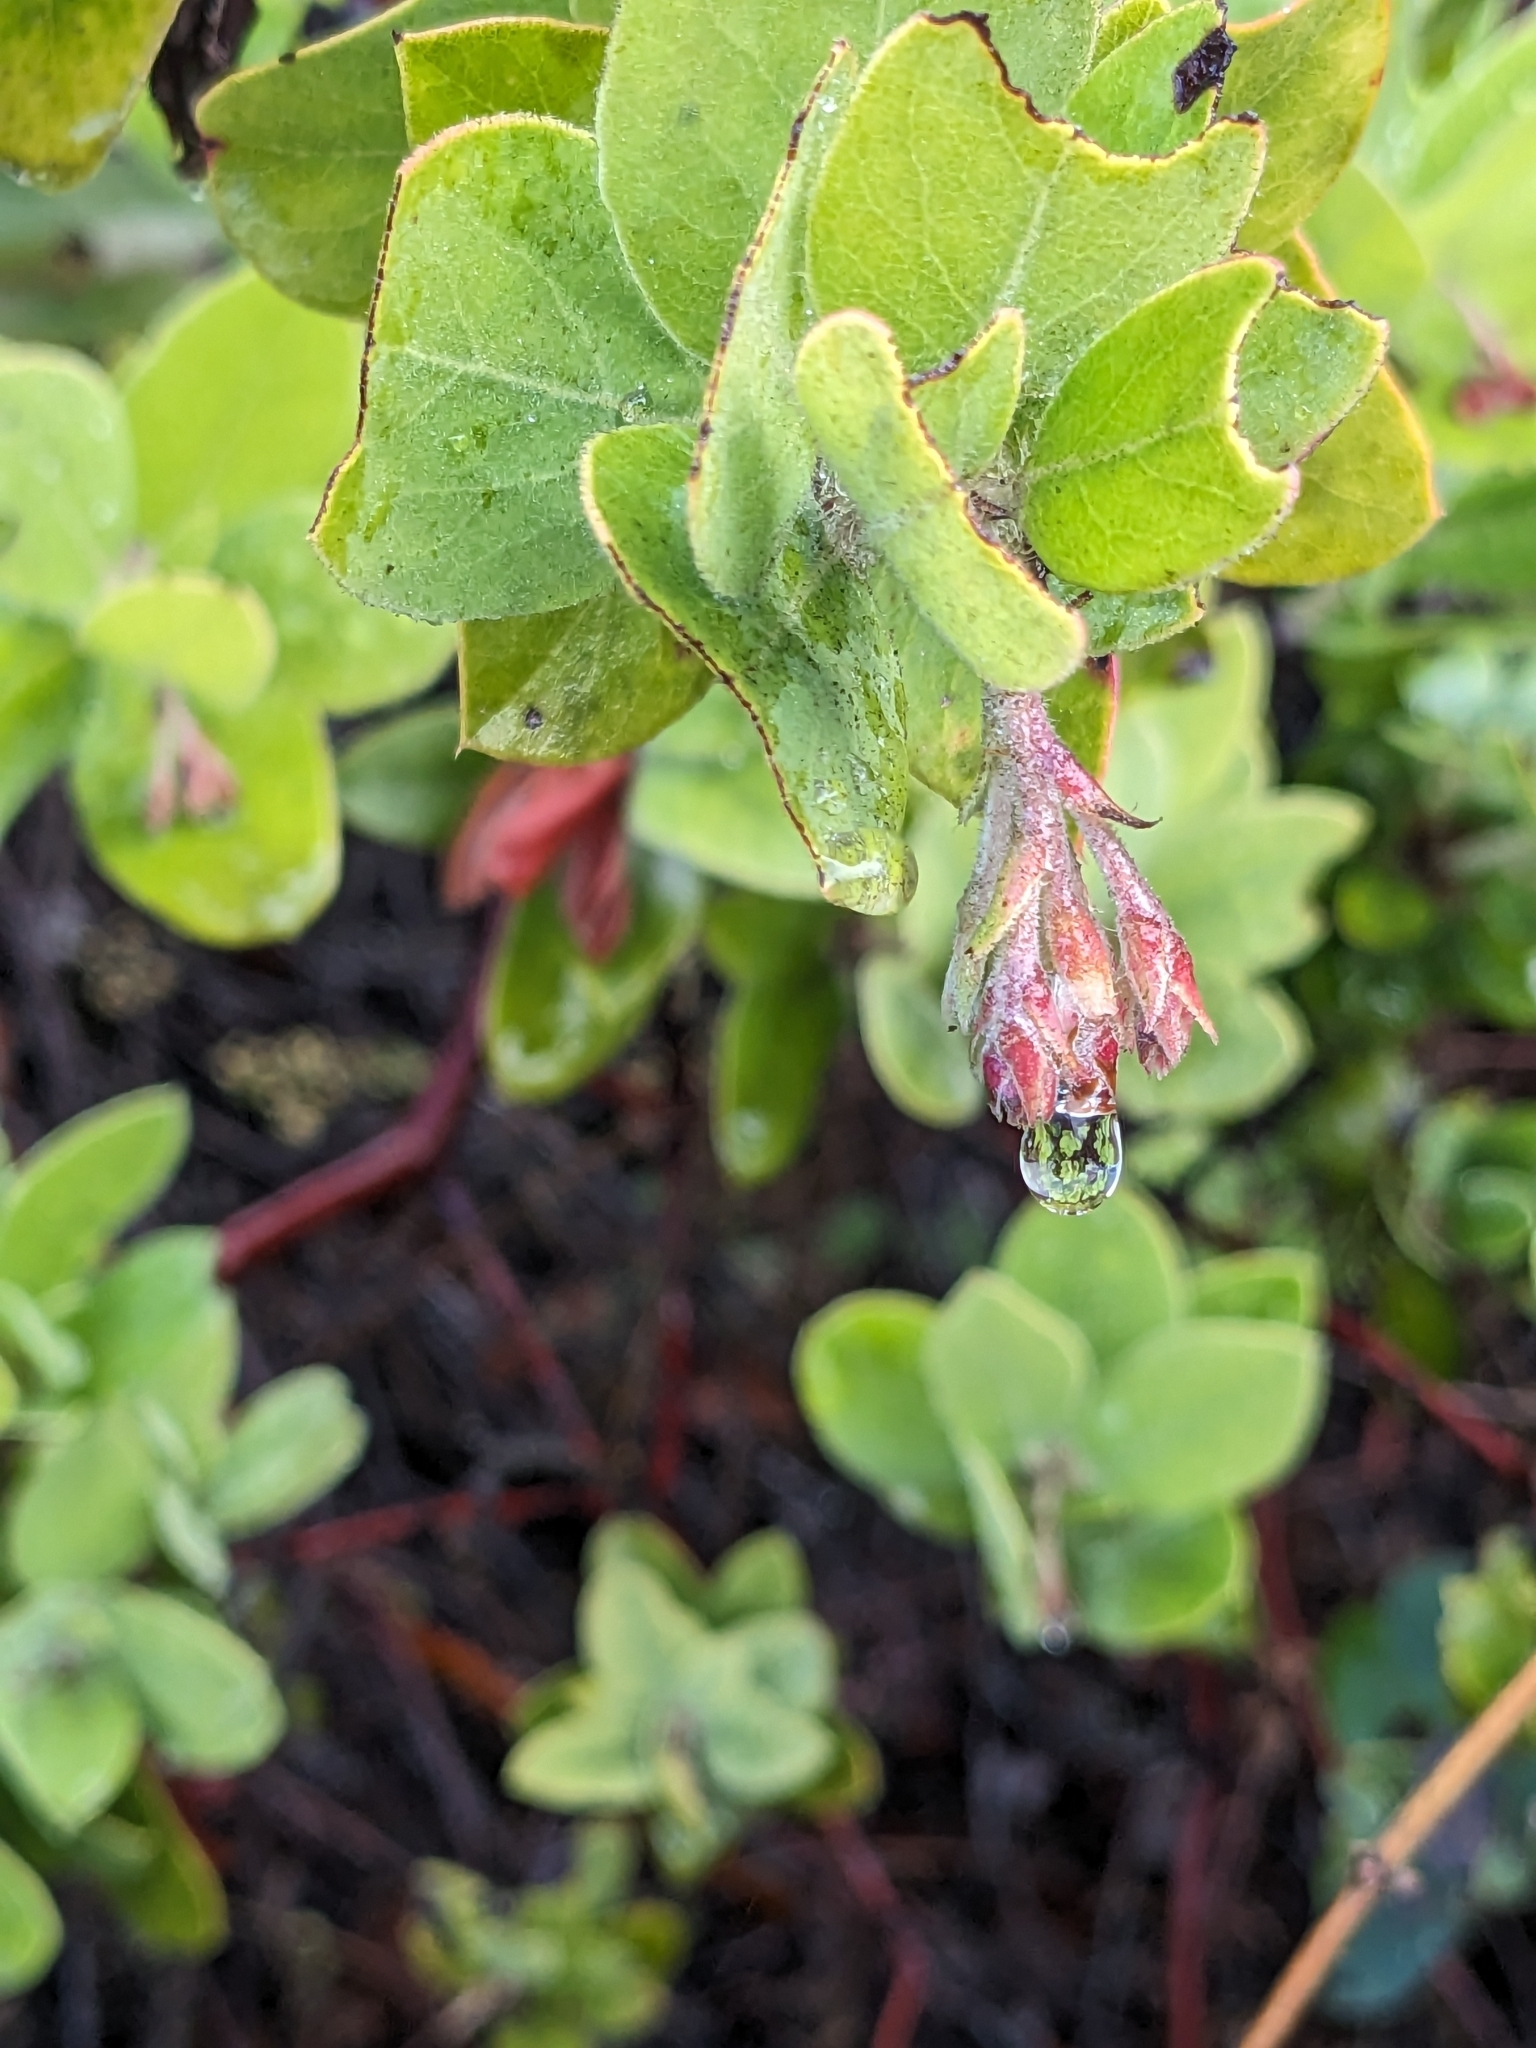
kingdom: Plantae
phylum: Tracheophyta
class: Magnoliopsida
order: Ericales
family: Ericaceae
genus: Arctostaphylos
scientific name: Arctostaphylos crustacea
